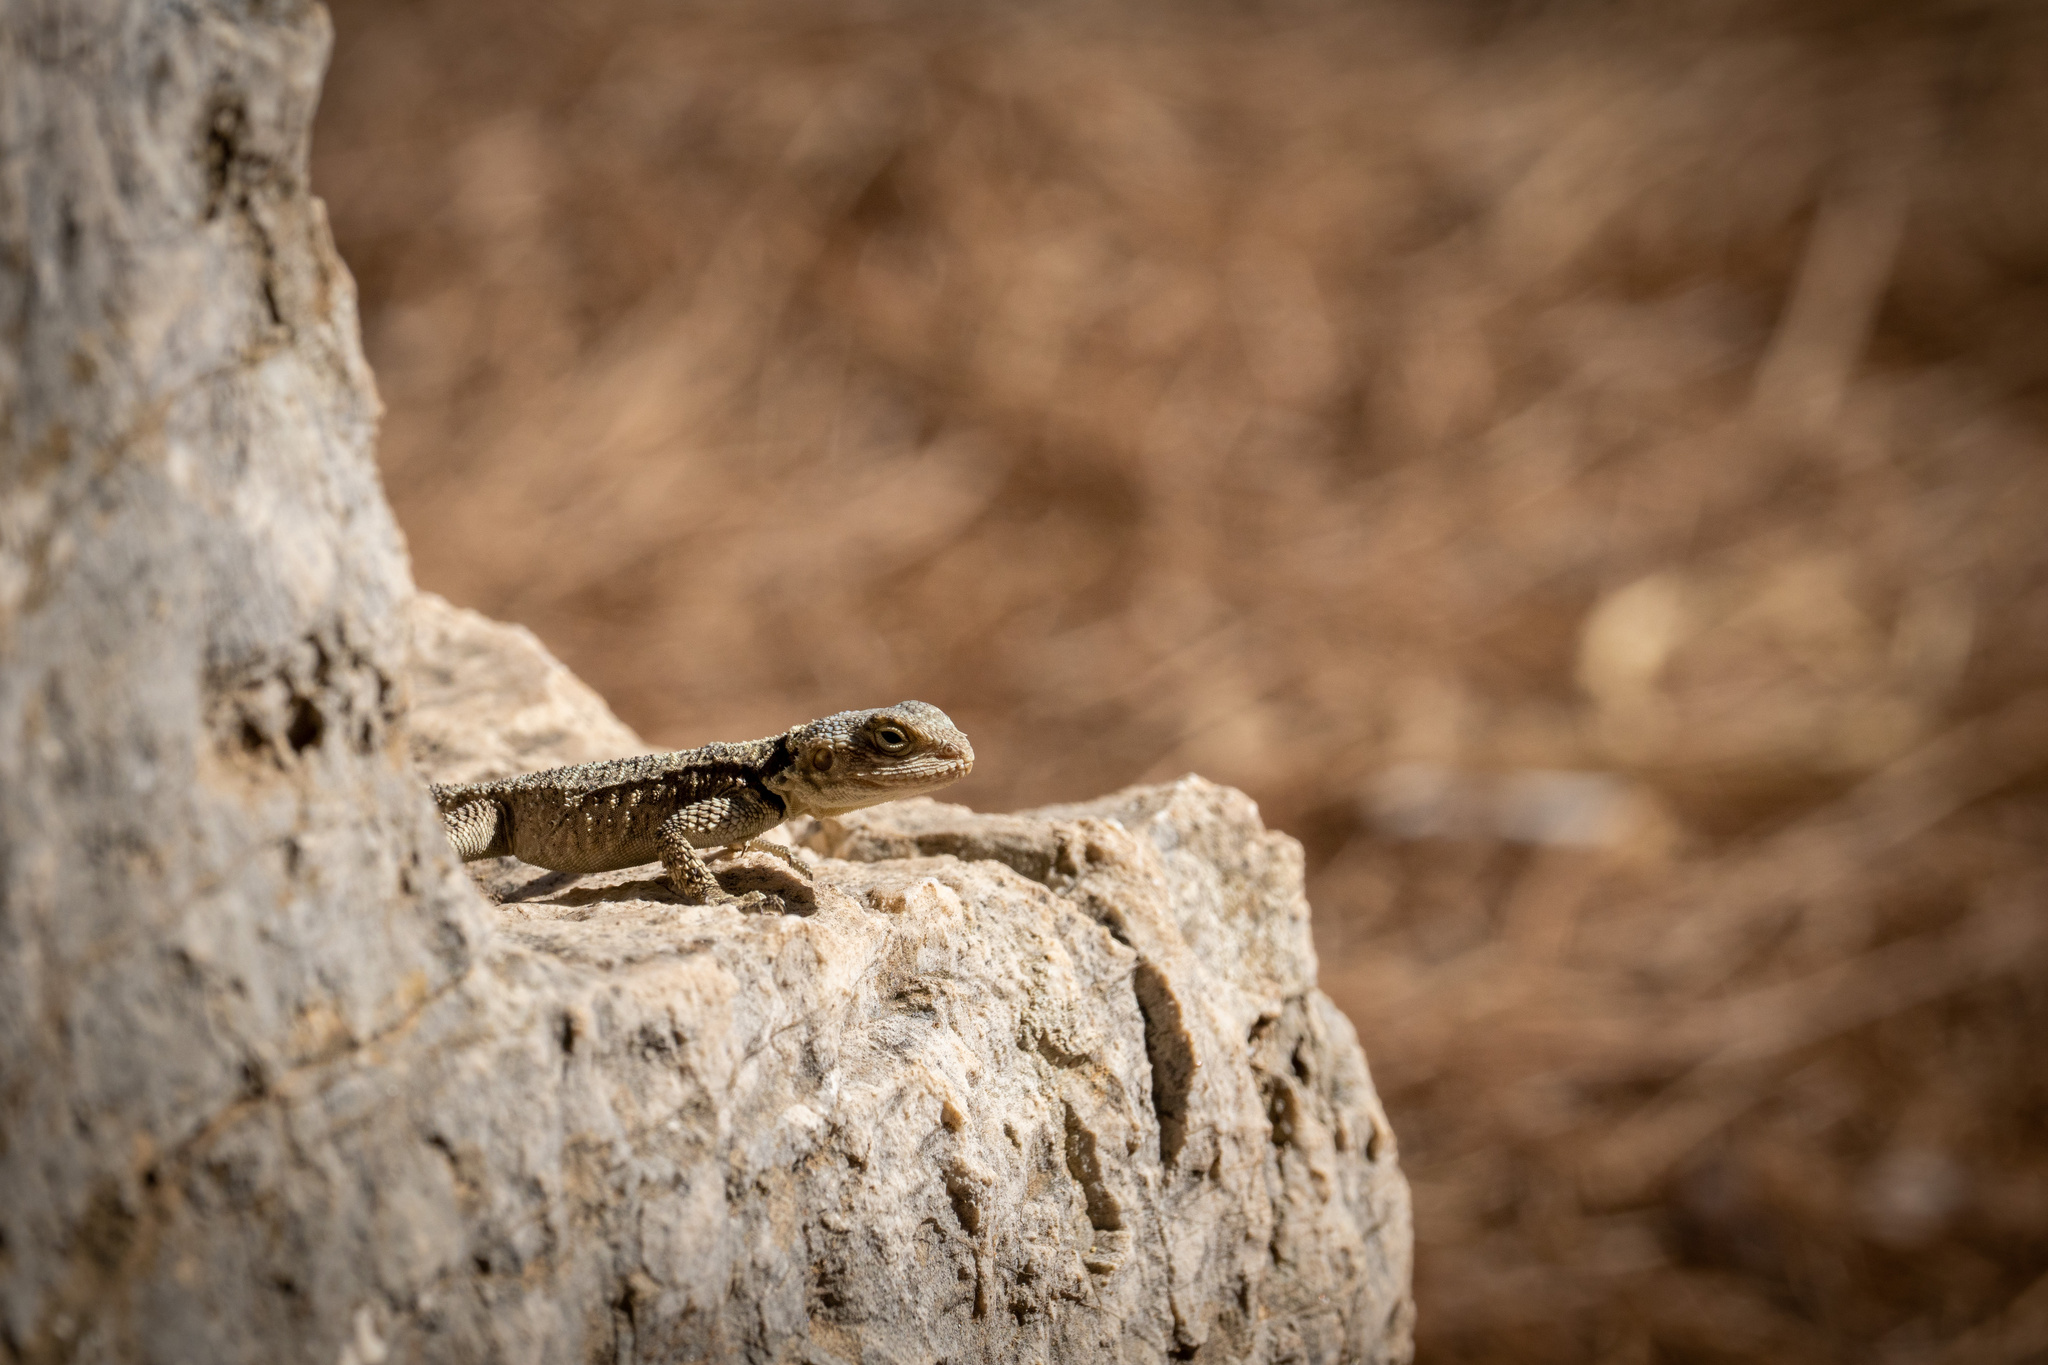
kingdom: Animalia
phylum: Chordata
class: Squamata
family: Agamidae
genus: Stellagama
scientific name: Stellagama stellio
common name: Starred agama
